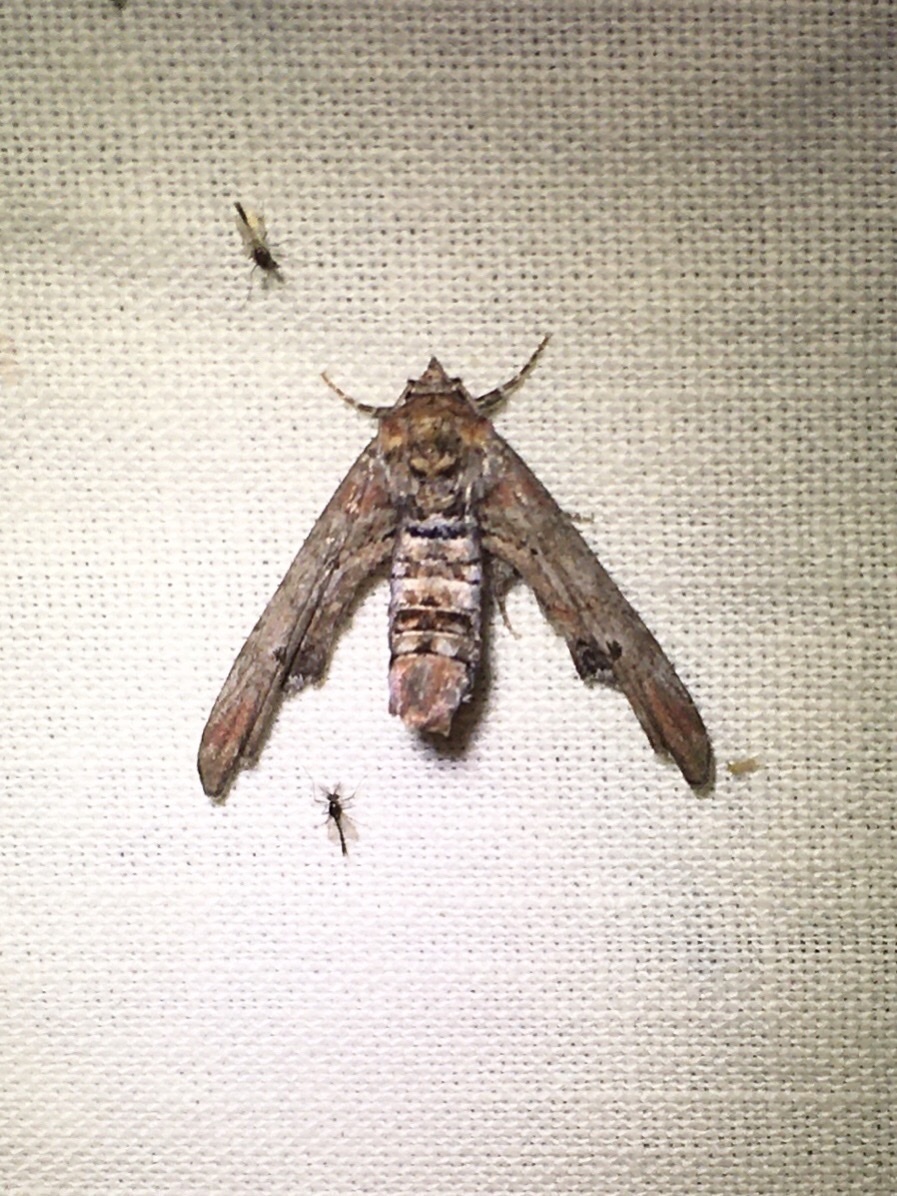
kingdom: Animalia
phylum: Arthropoda
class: Insecta
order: Lepidoptera
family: Euteliidae
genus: Marathyssa
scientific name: Marathyssa inficita
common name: Dark marathyssa moth
